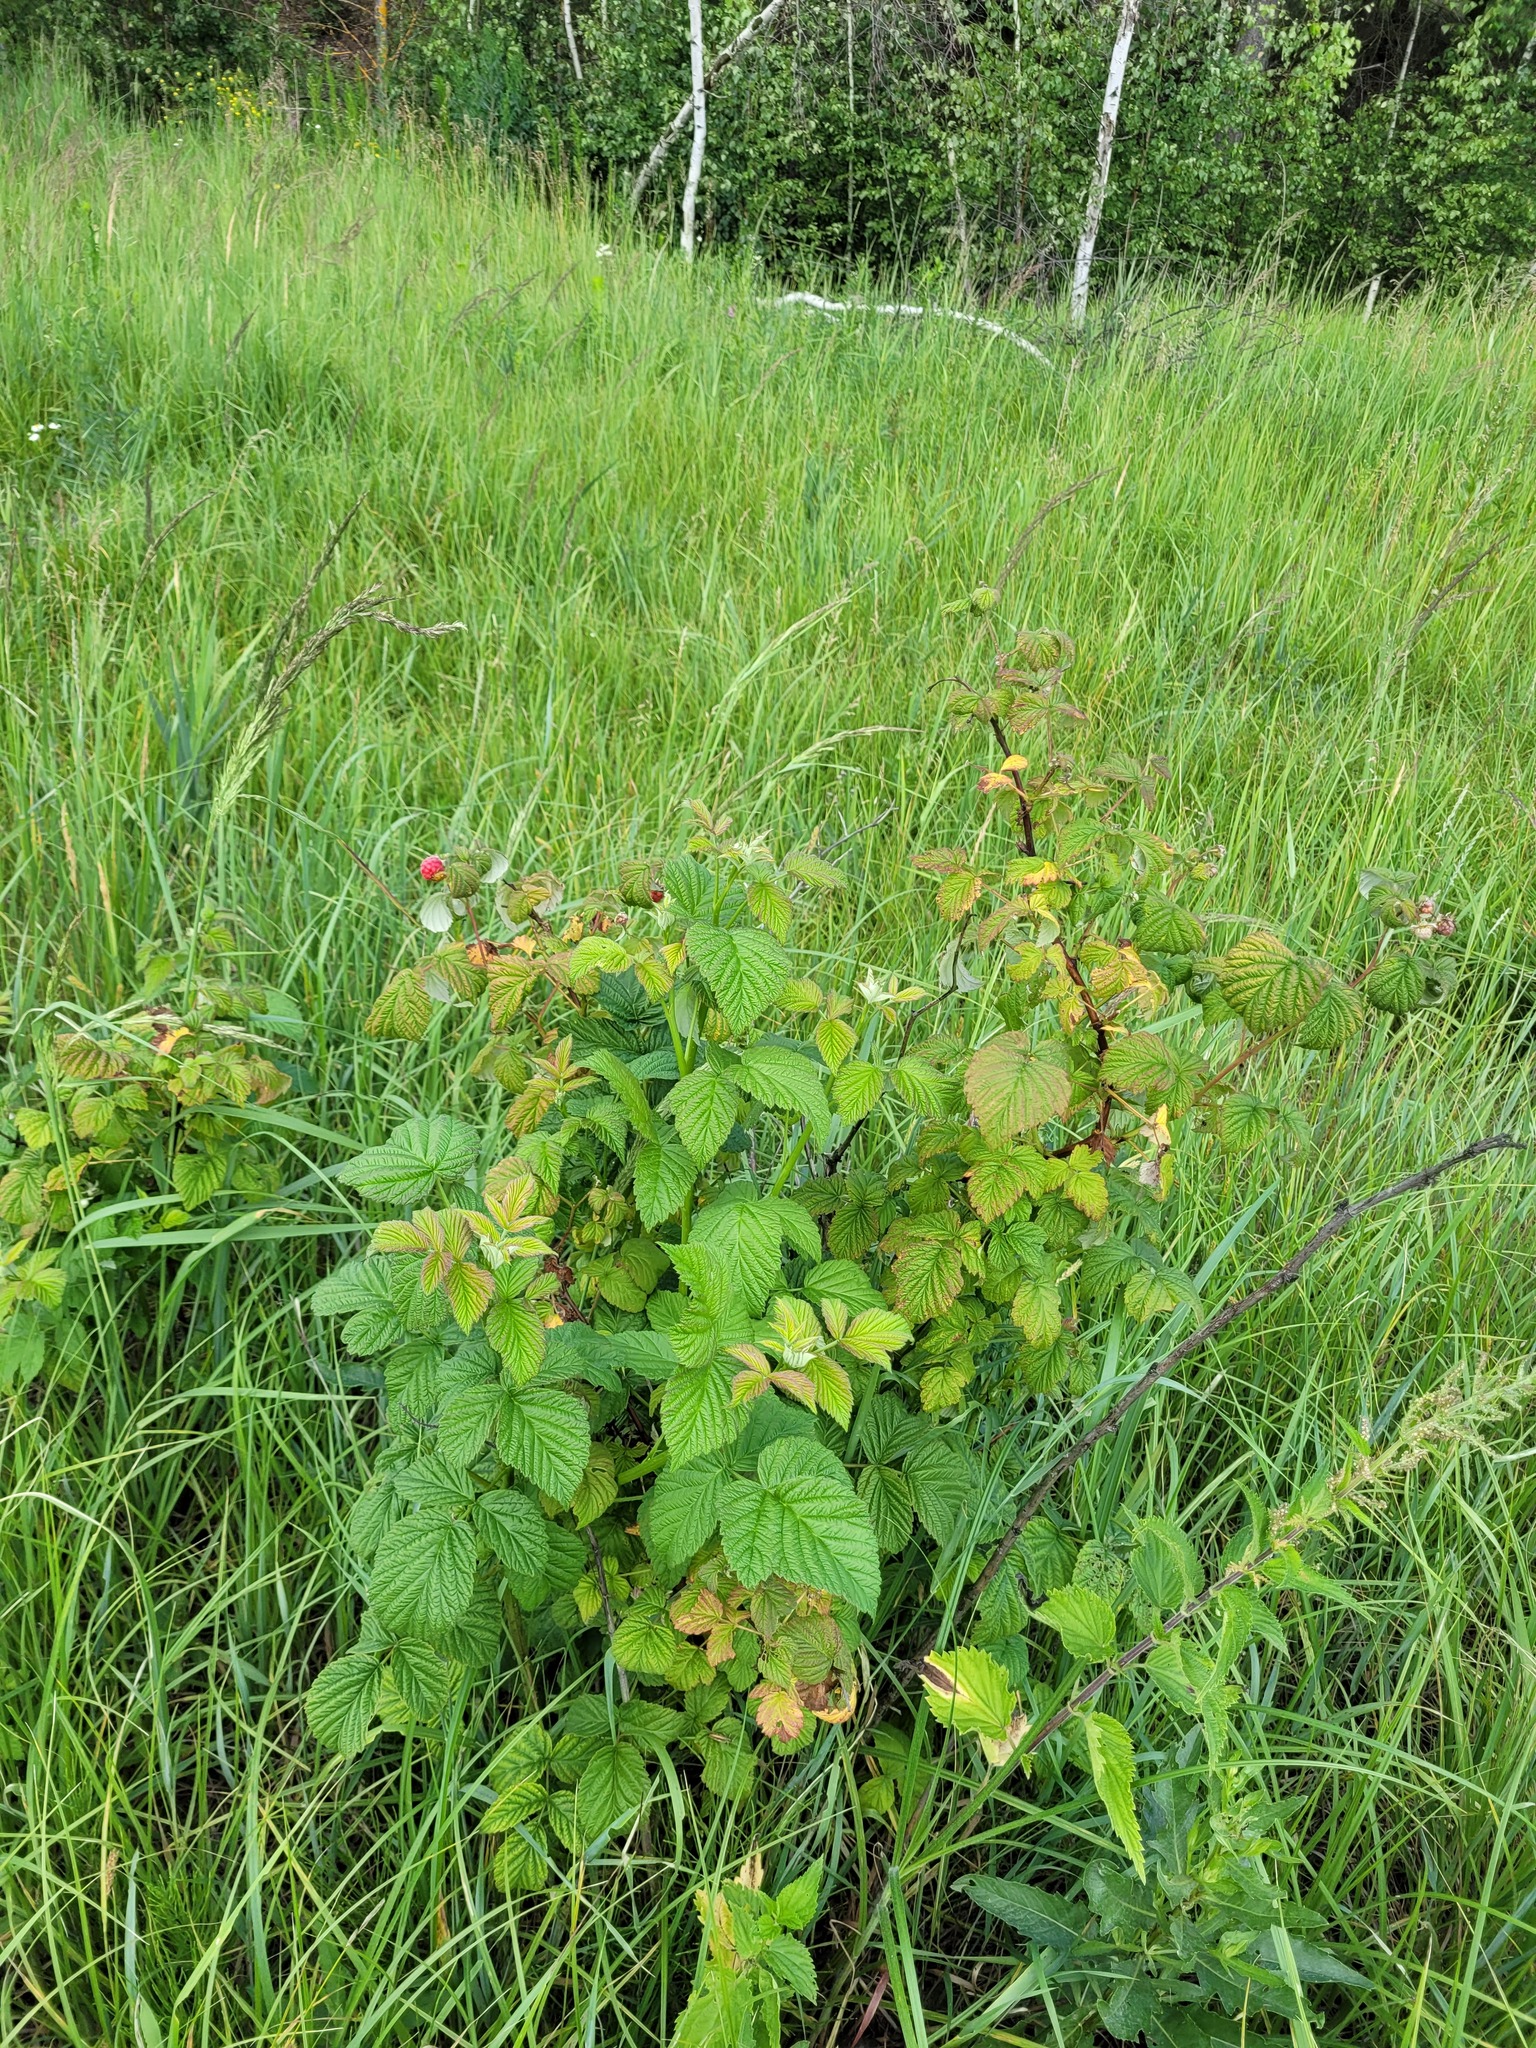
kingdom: Plantae
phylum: Tracheophyta
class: Magnoliopsida
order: Rosales
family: Rosaceae
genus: Rubus
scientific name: Rubus idaeus
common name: Raspberry
